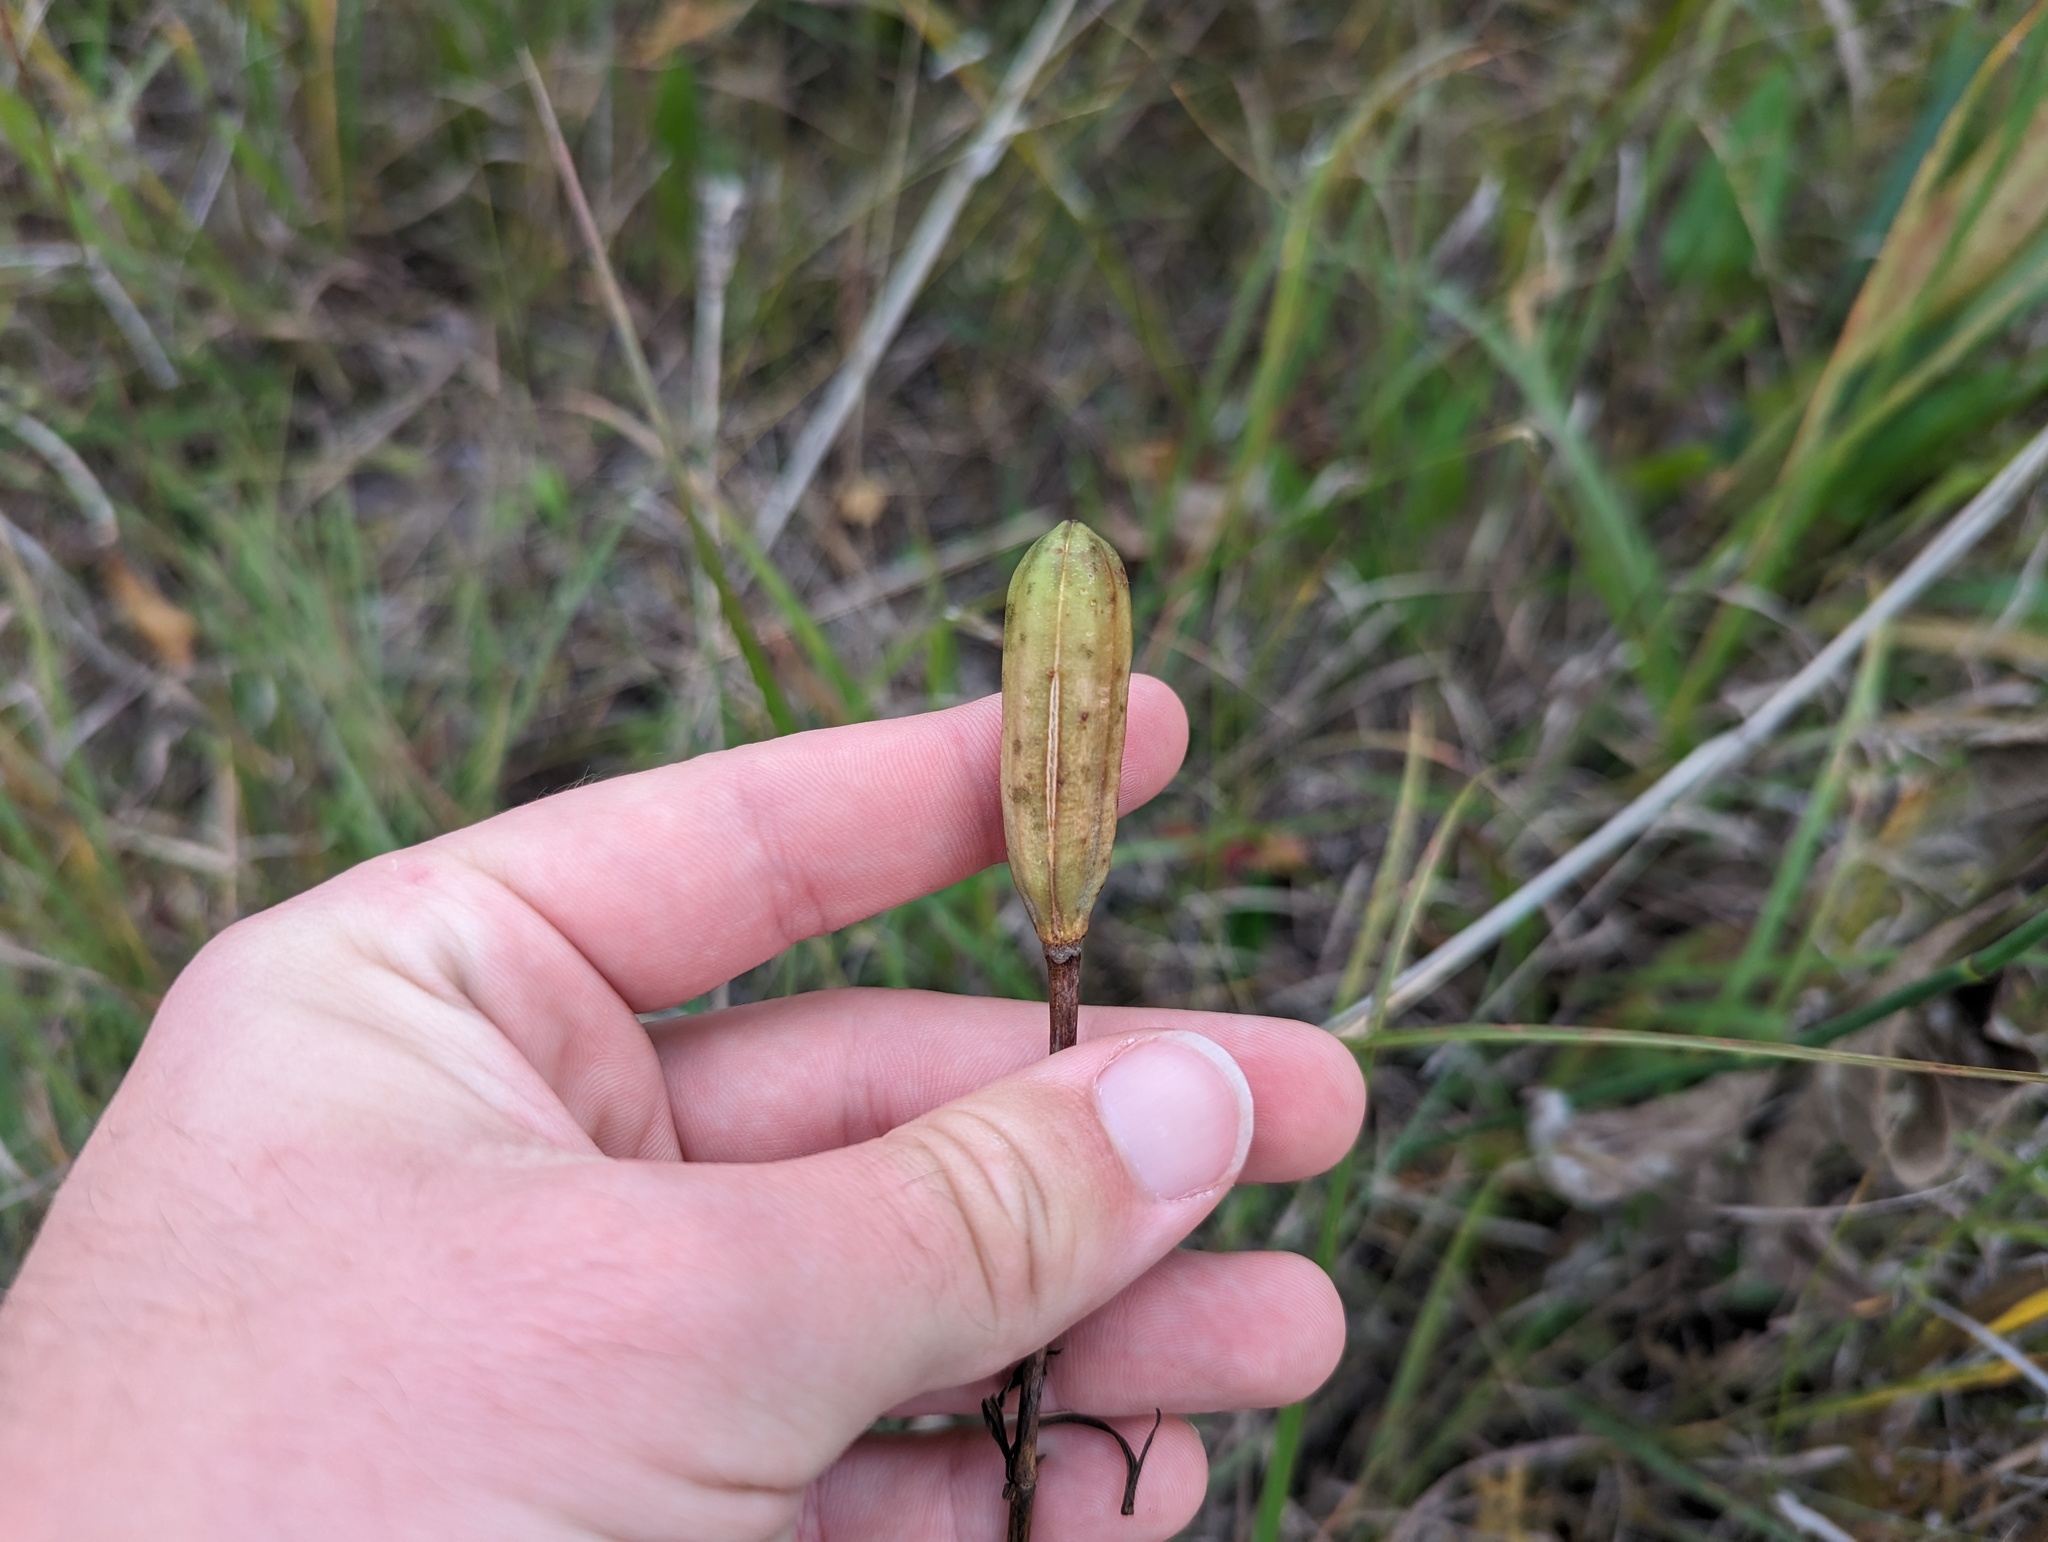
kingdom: Plantae
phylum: Tracheophyta
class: Liliopsida
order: Liliales
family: Liliaceae
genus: Lilium
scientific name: Lilium philadelphicum
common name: Red lily
